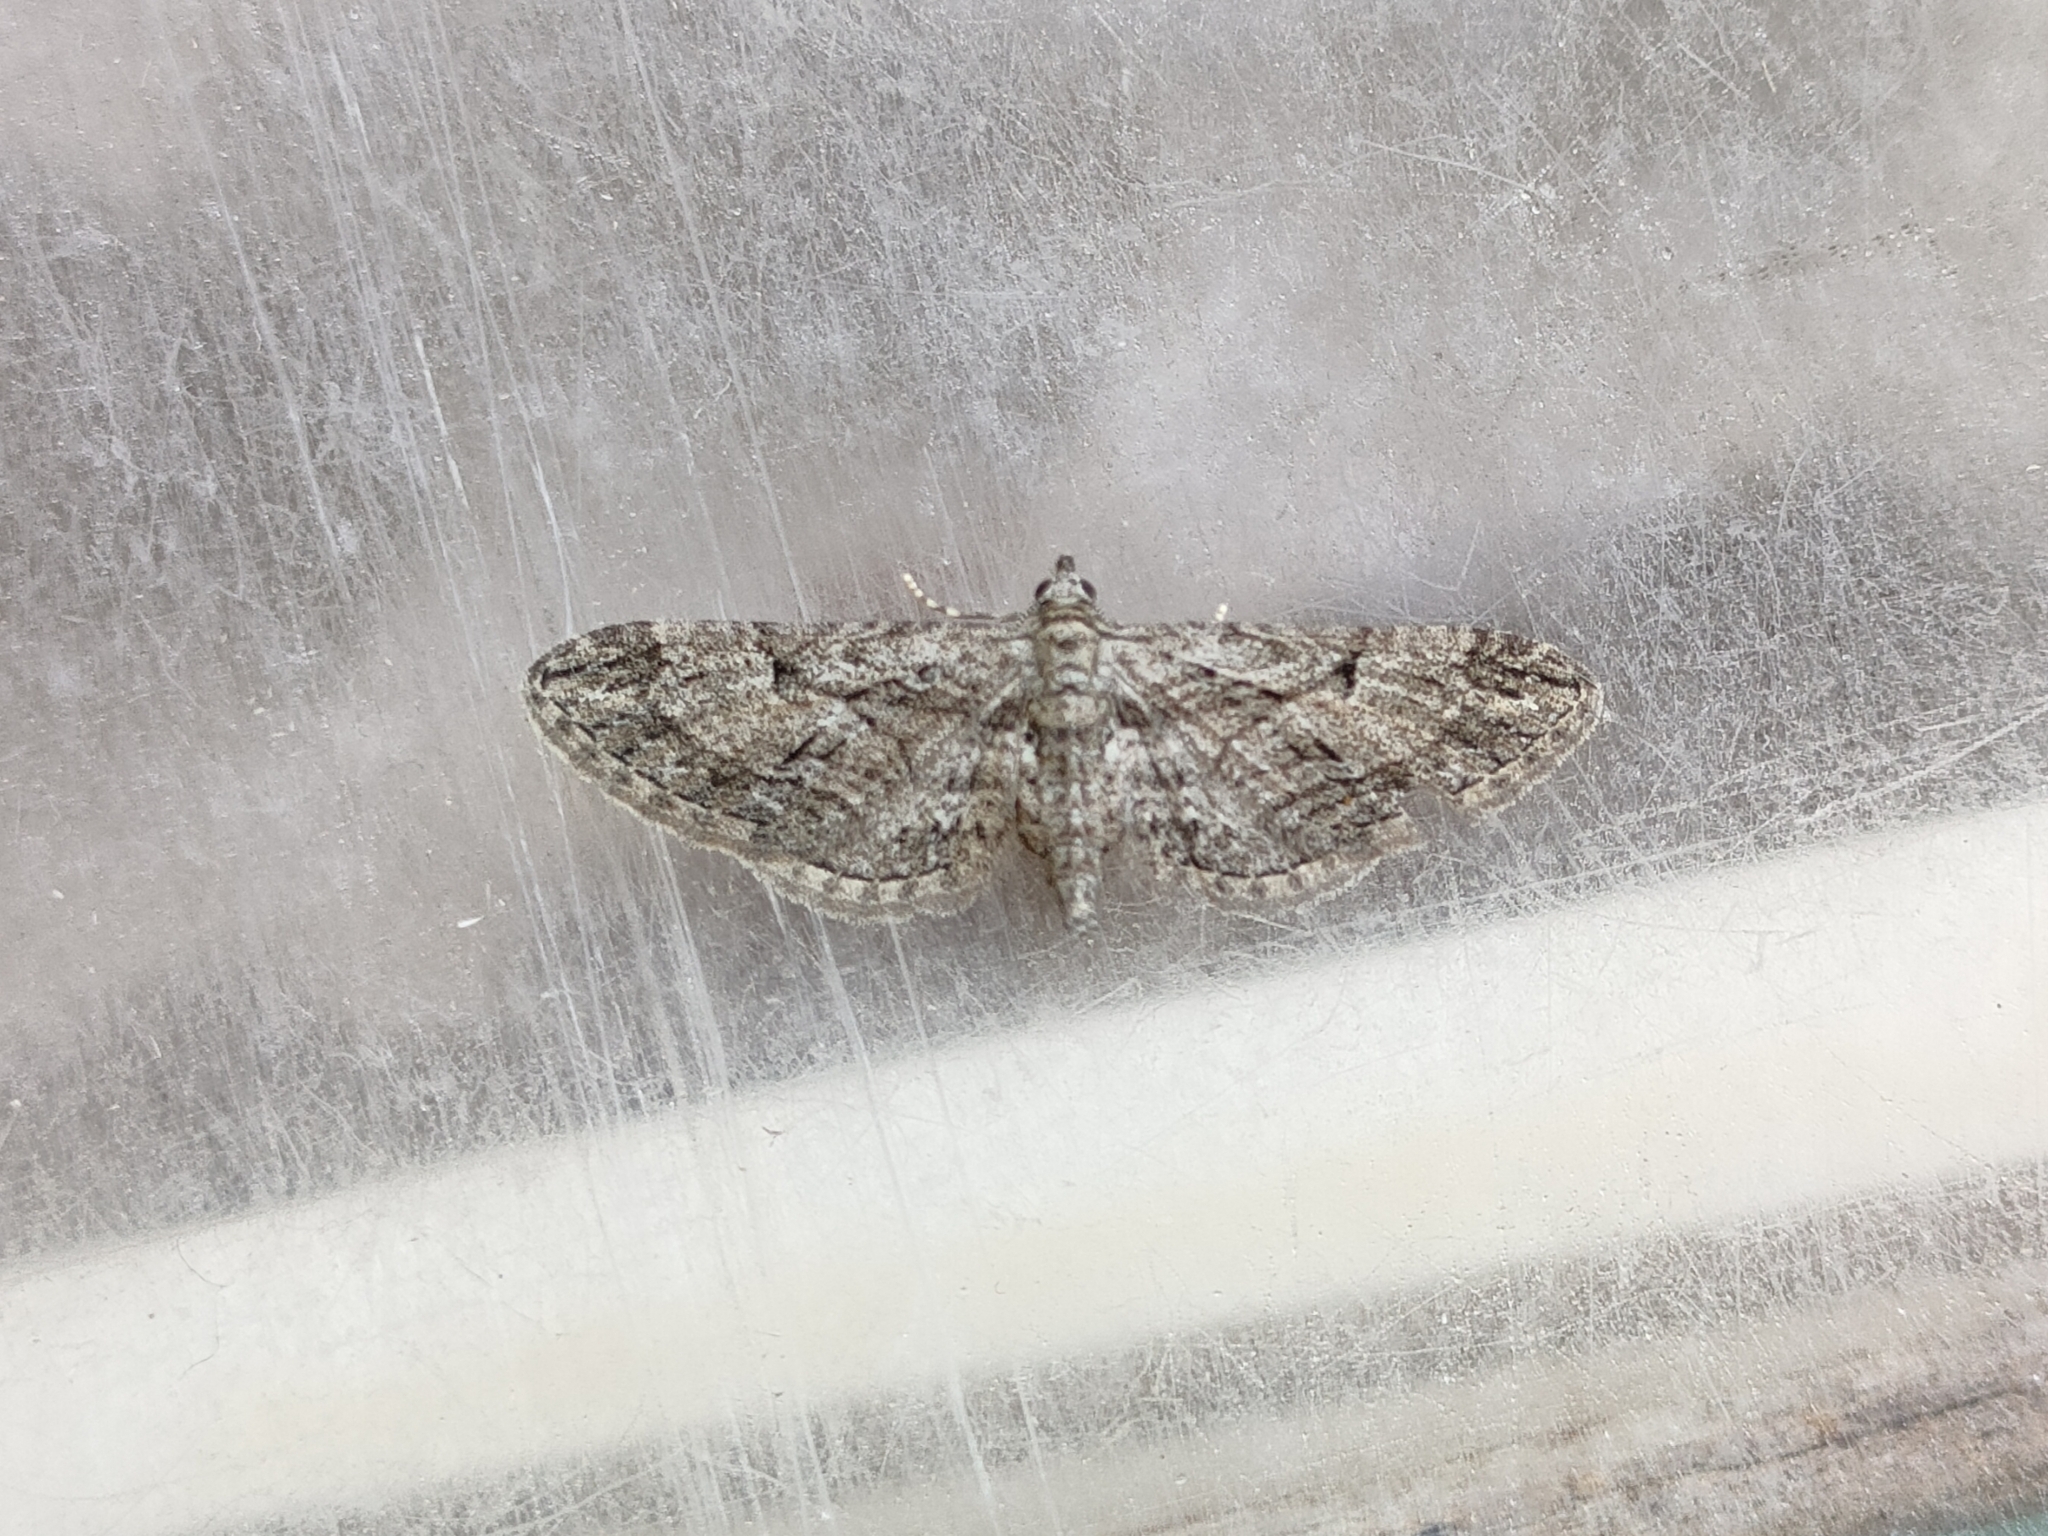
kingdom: Animalia
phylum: Arthropoda
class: Insecta
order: Lepidoptera
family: Geometridae
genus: Eupithecia
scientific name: Eupithecia oxycedrata
